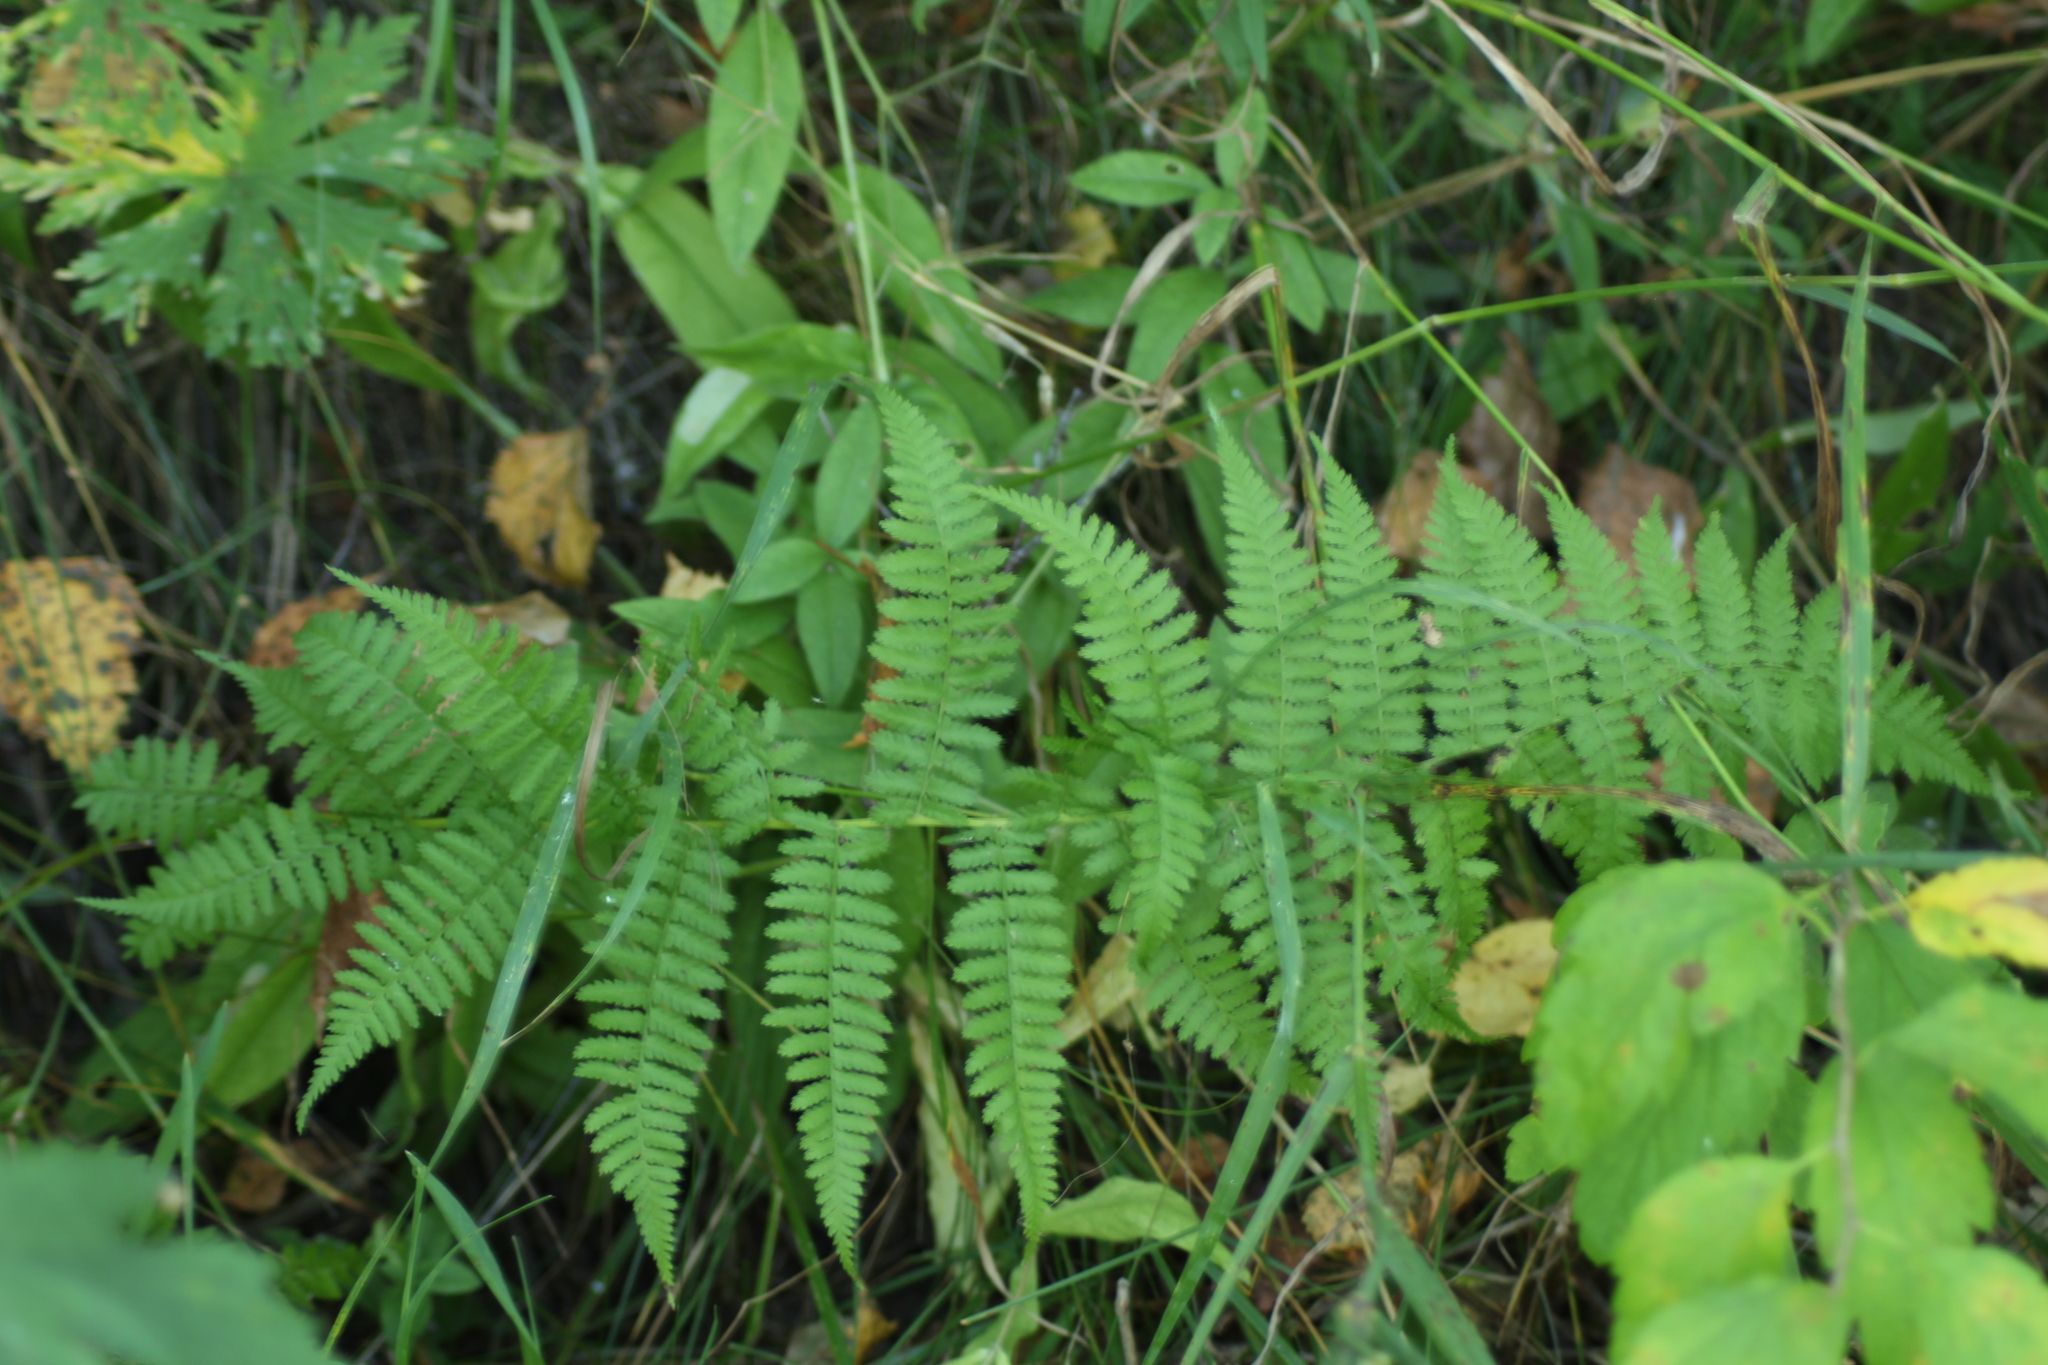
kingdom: Plantae
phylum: Tracheophyta
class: Polypodiopsida
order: Polypodiales
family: Athyriaceae
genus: Athyrium
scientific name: Athyrium filix-femina
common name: Lady fern
